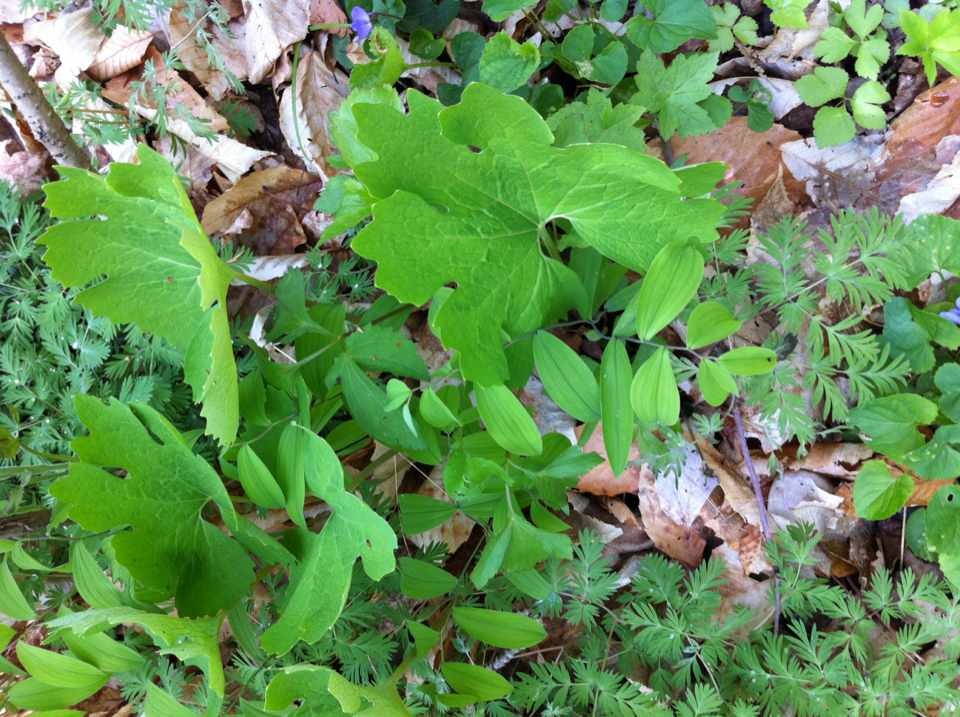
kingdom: Plantae
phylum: Tracheophyta
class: Magnoliopsida
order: Ranunculales
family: Papaveraceae
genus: Sanguinaria
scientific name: Sanguinaria canadensis
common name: Bloodroot
